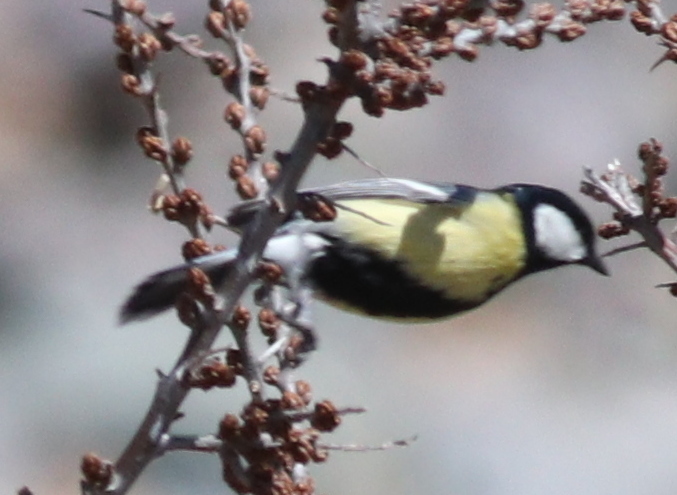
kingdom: Animalia
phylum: Chordata
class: Aves
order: Passeriformes
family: Paridae
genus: Parus
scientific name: Parus major
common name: Great tit
